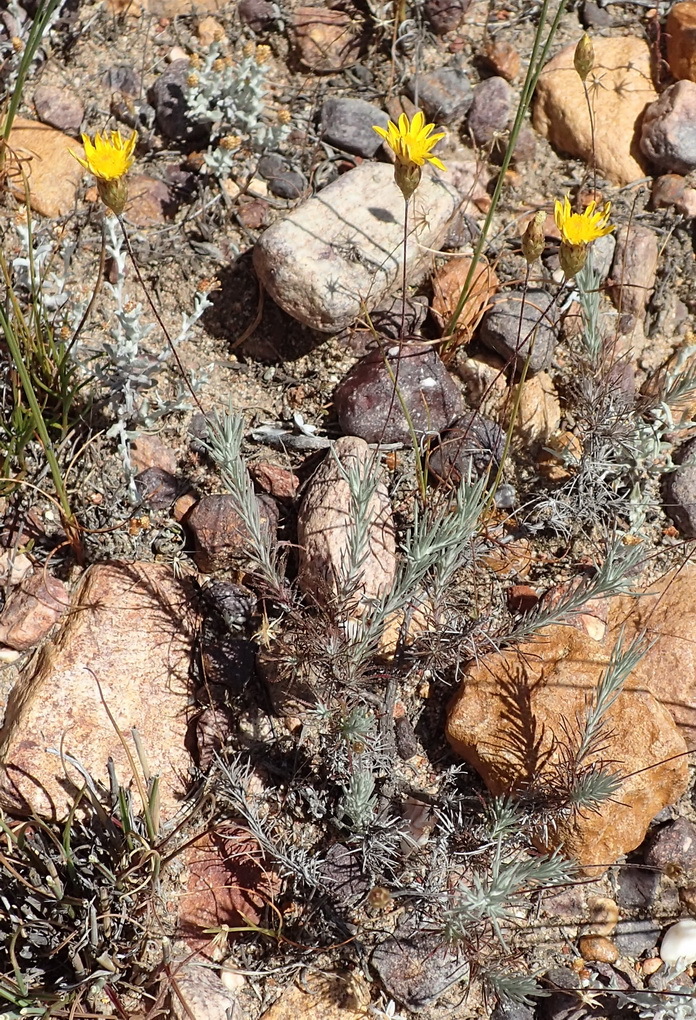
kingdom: Plantae
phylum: Tracheophyta
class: Magnoliopsida
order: Asterales
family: Asteraceae
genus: Leysera
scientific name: Leysera gnaphalodes
